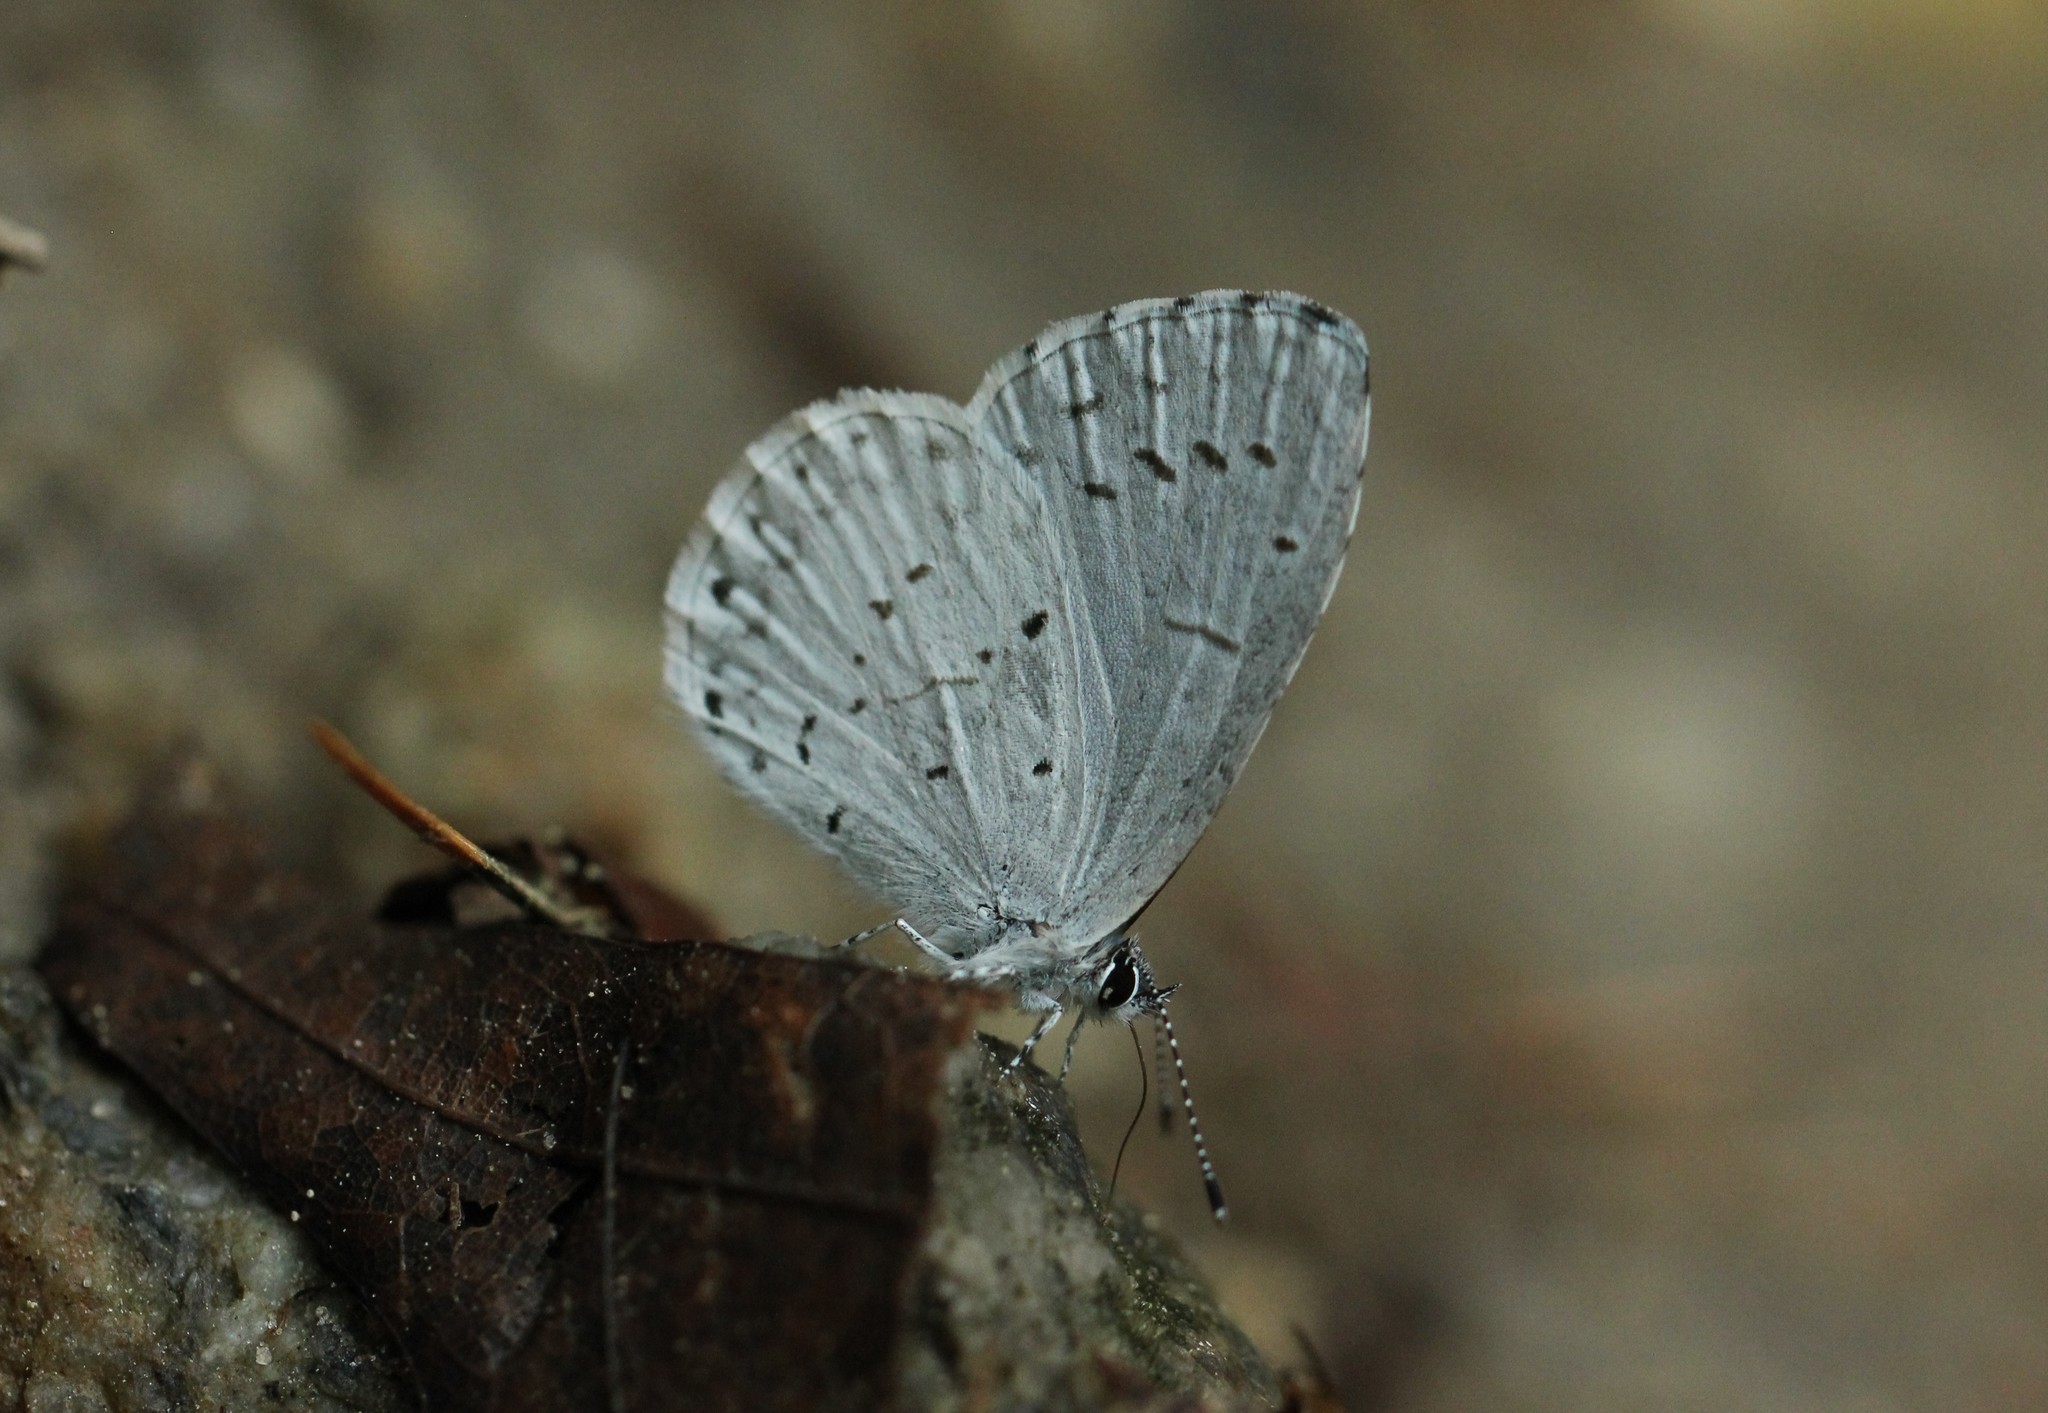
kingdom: Animalia
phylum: Arthropoda
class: Insecta
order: Lepidoptera
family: Lycaenidae
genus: Cyaniris
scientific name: Cyaniris neglecta
